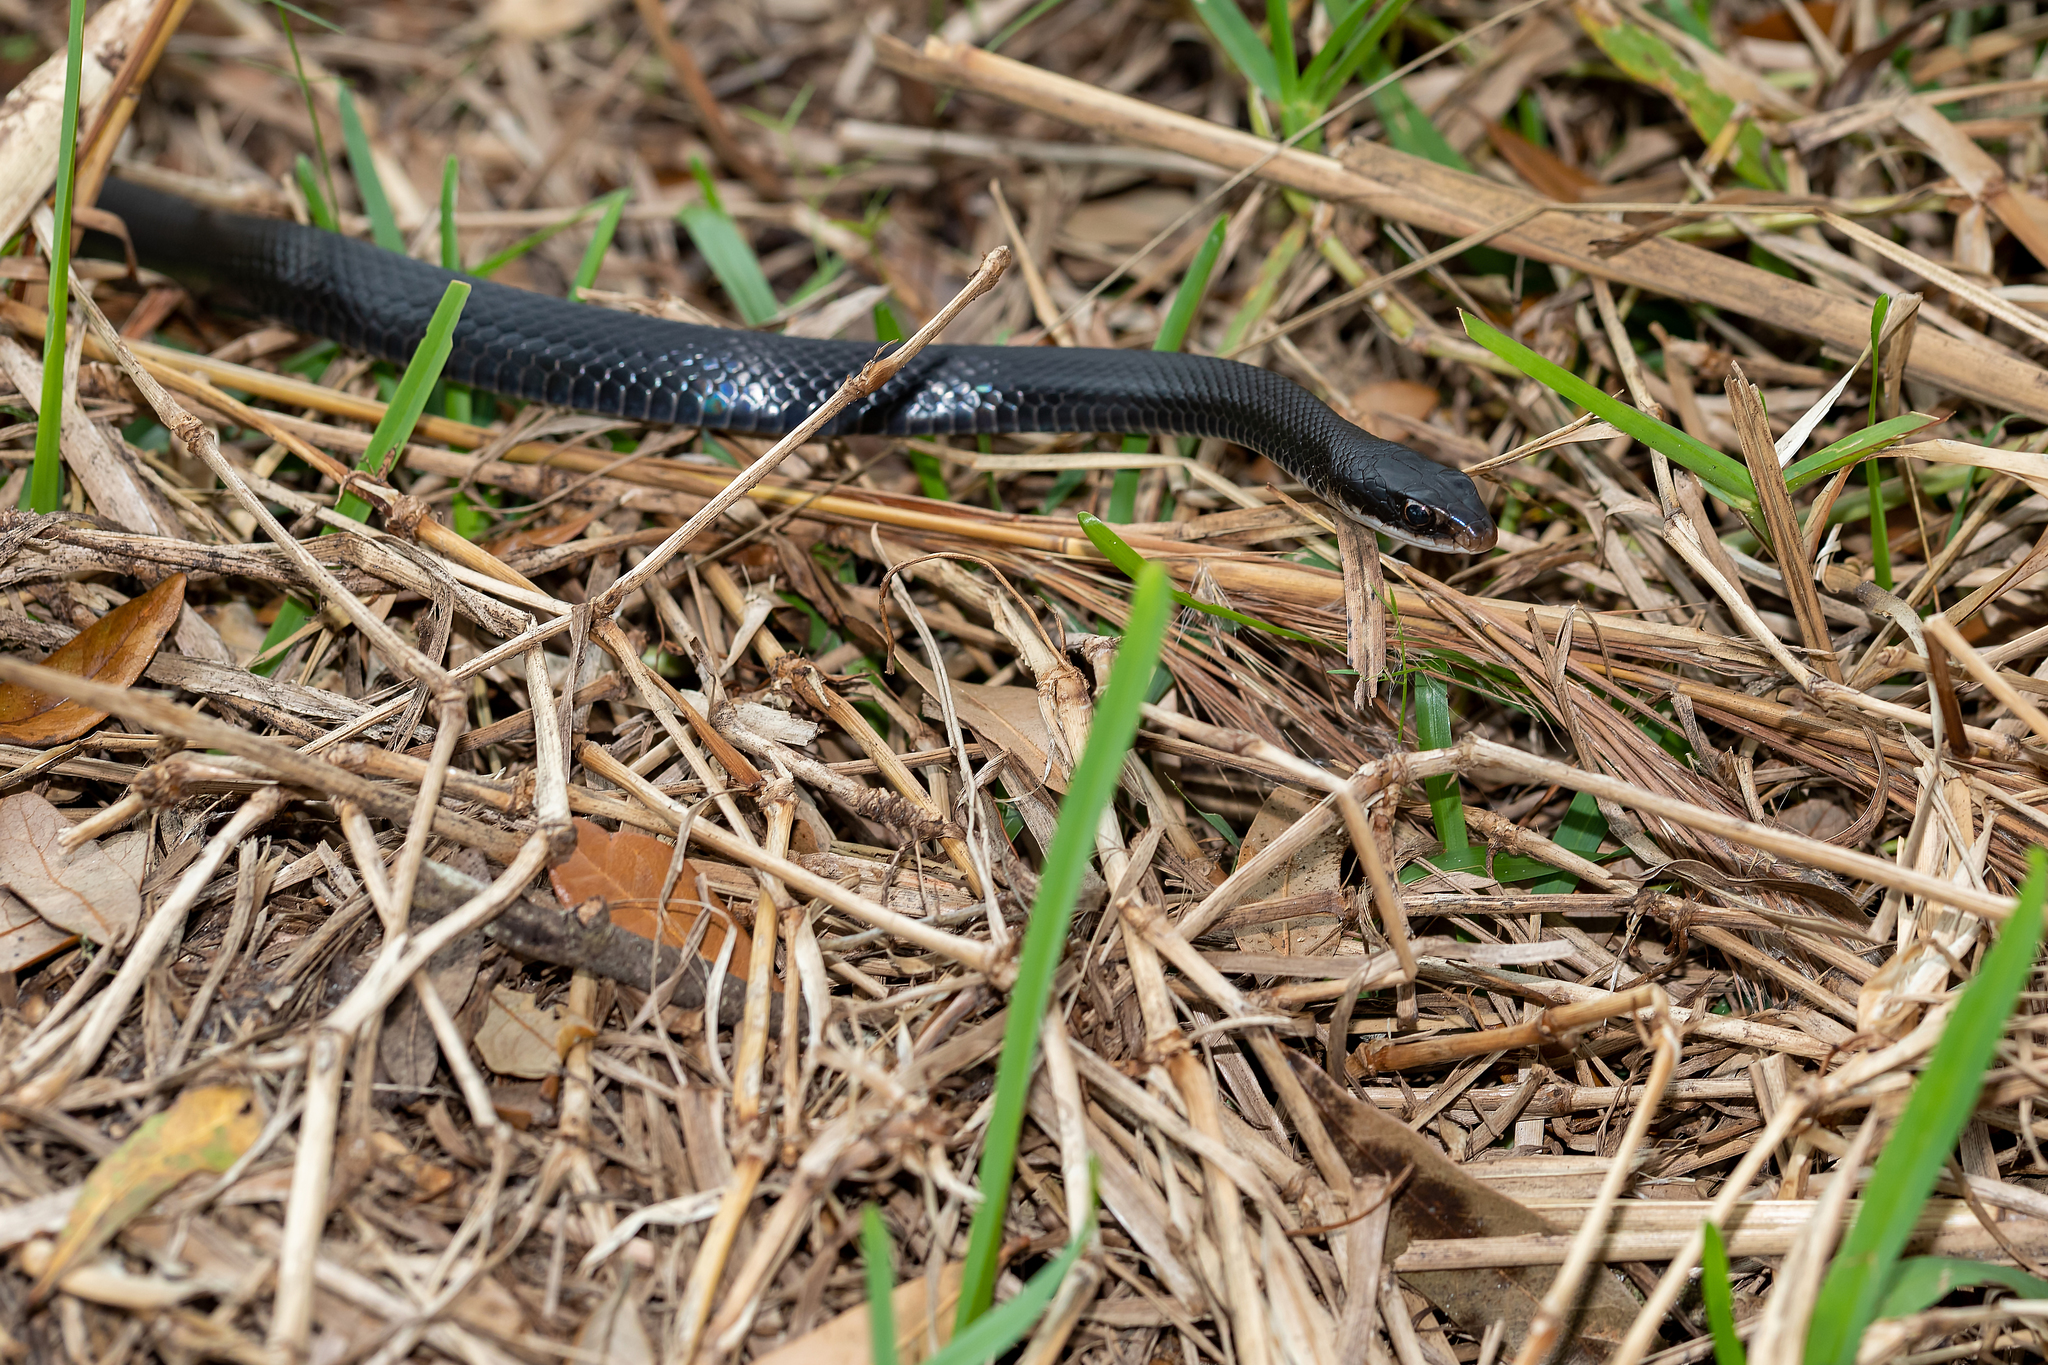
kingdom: Animalia
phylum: Chordata
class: Squamata
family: Colubridae
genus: Coluber
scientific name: Coluber constrictor
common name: Eastern racer
